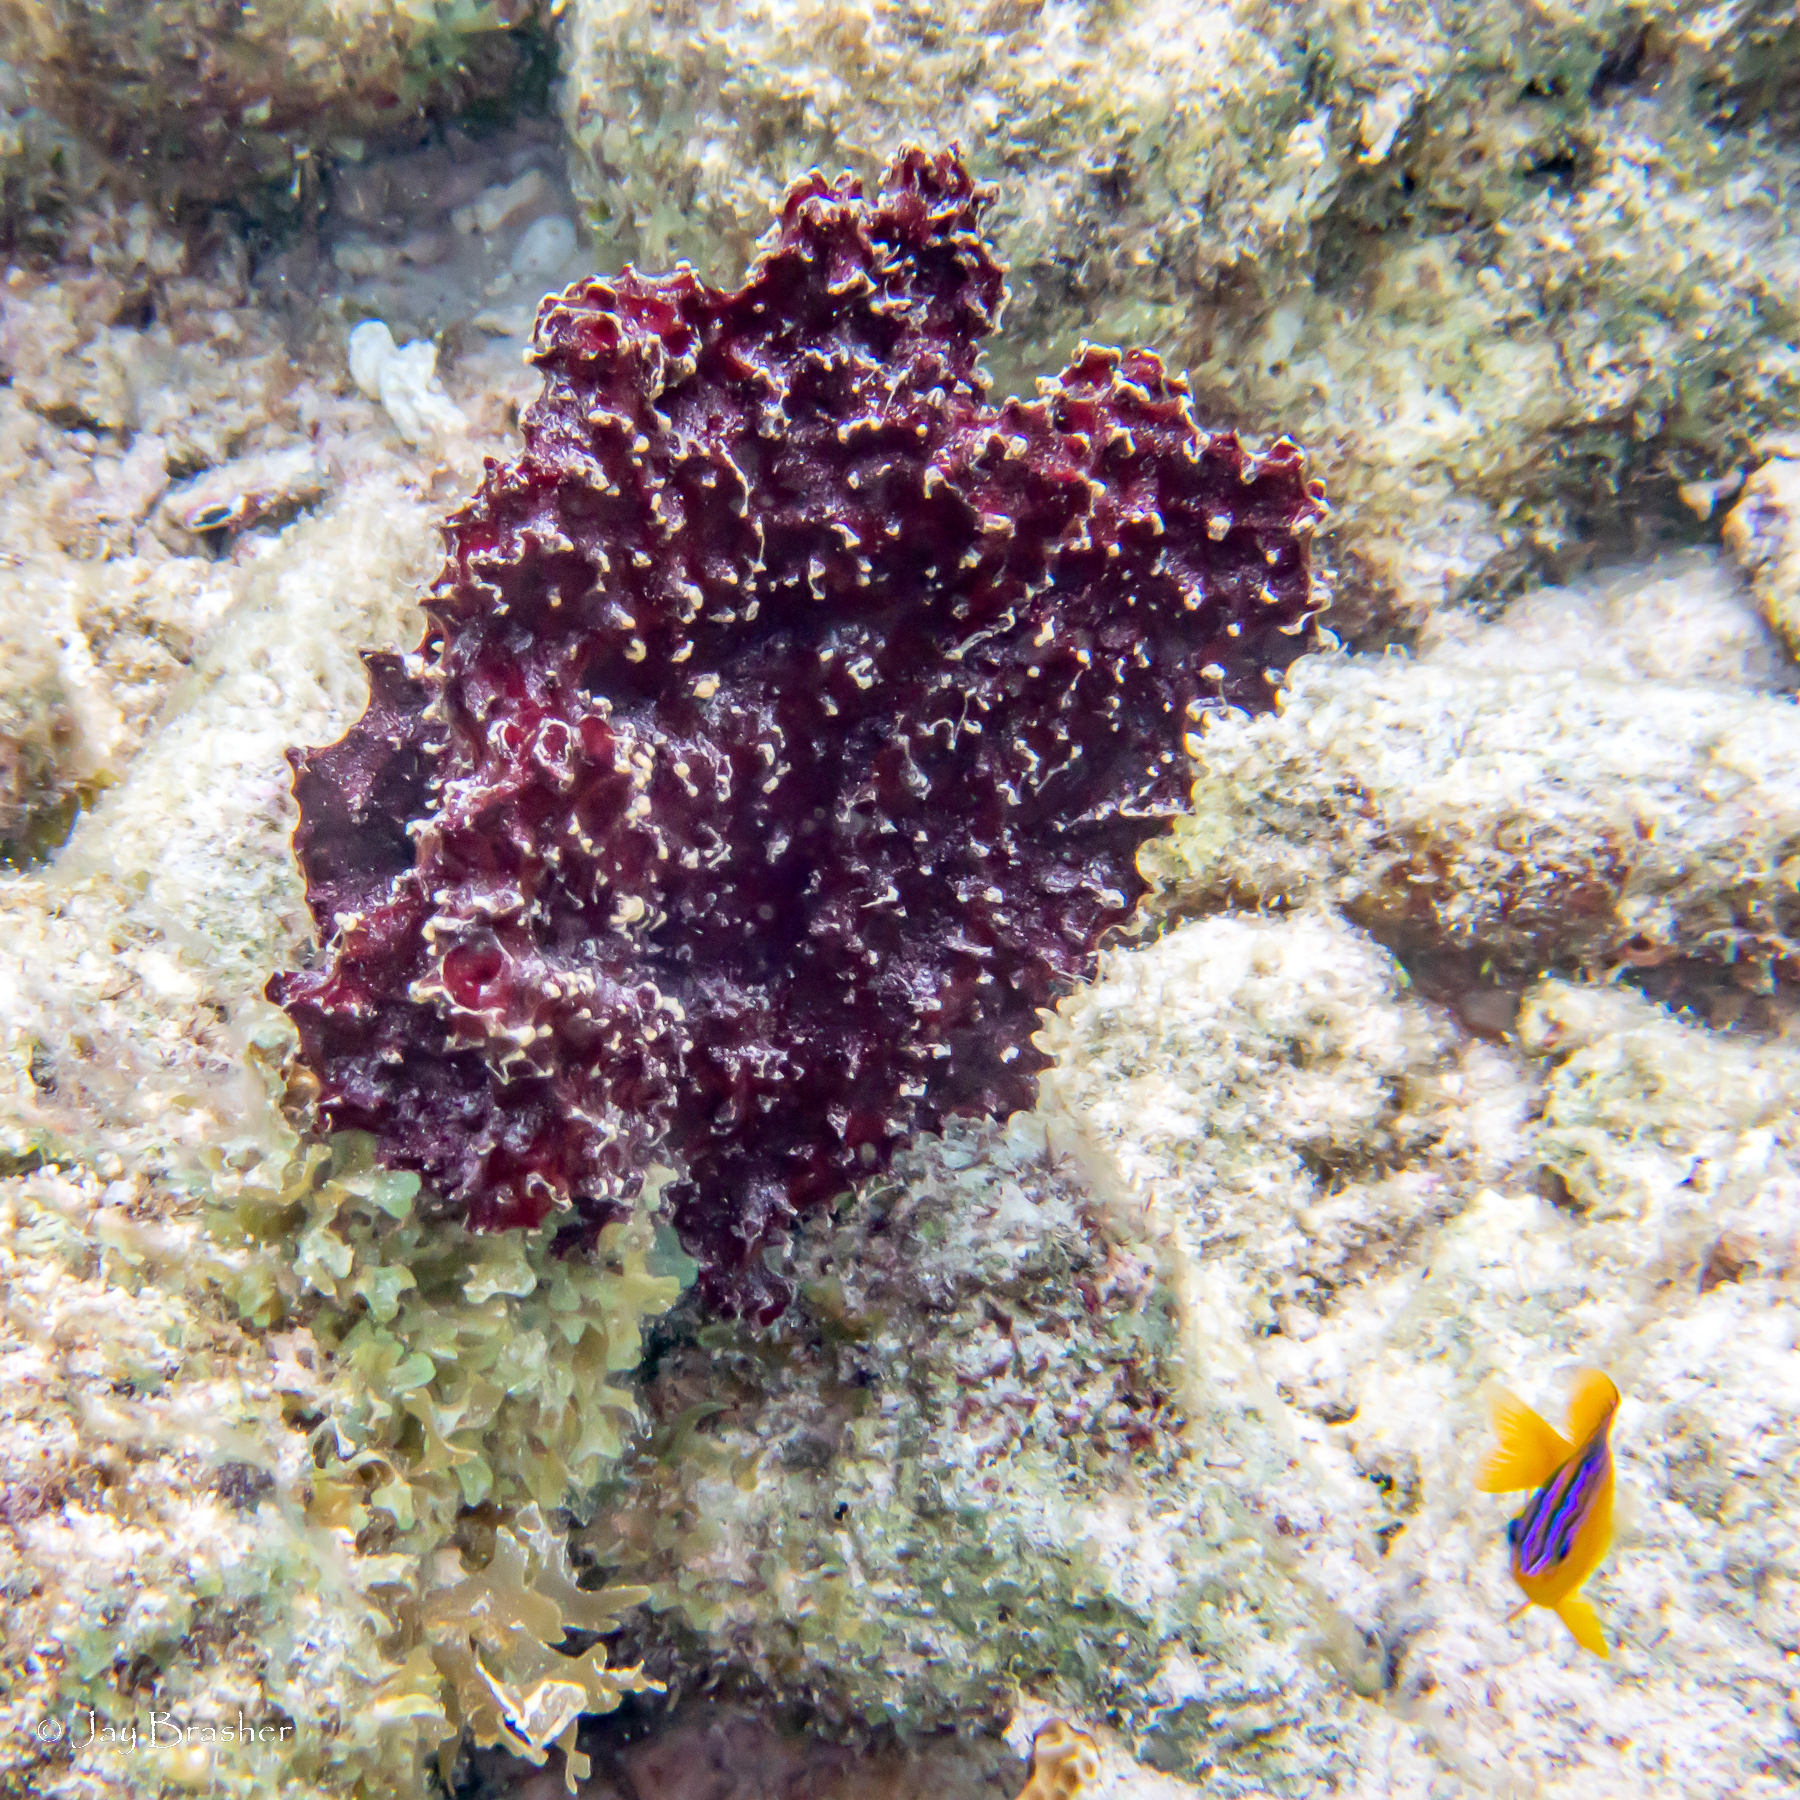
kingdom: Animalia
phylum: Chordata
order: Perciformes
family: Pomacentridae
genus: Stegastes
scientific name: Stegastes diencaeus
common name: Longfin damselfish
